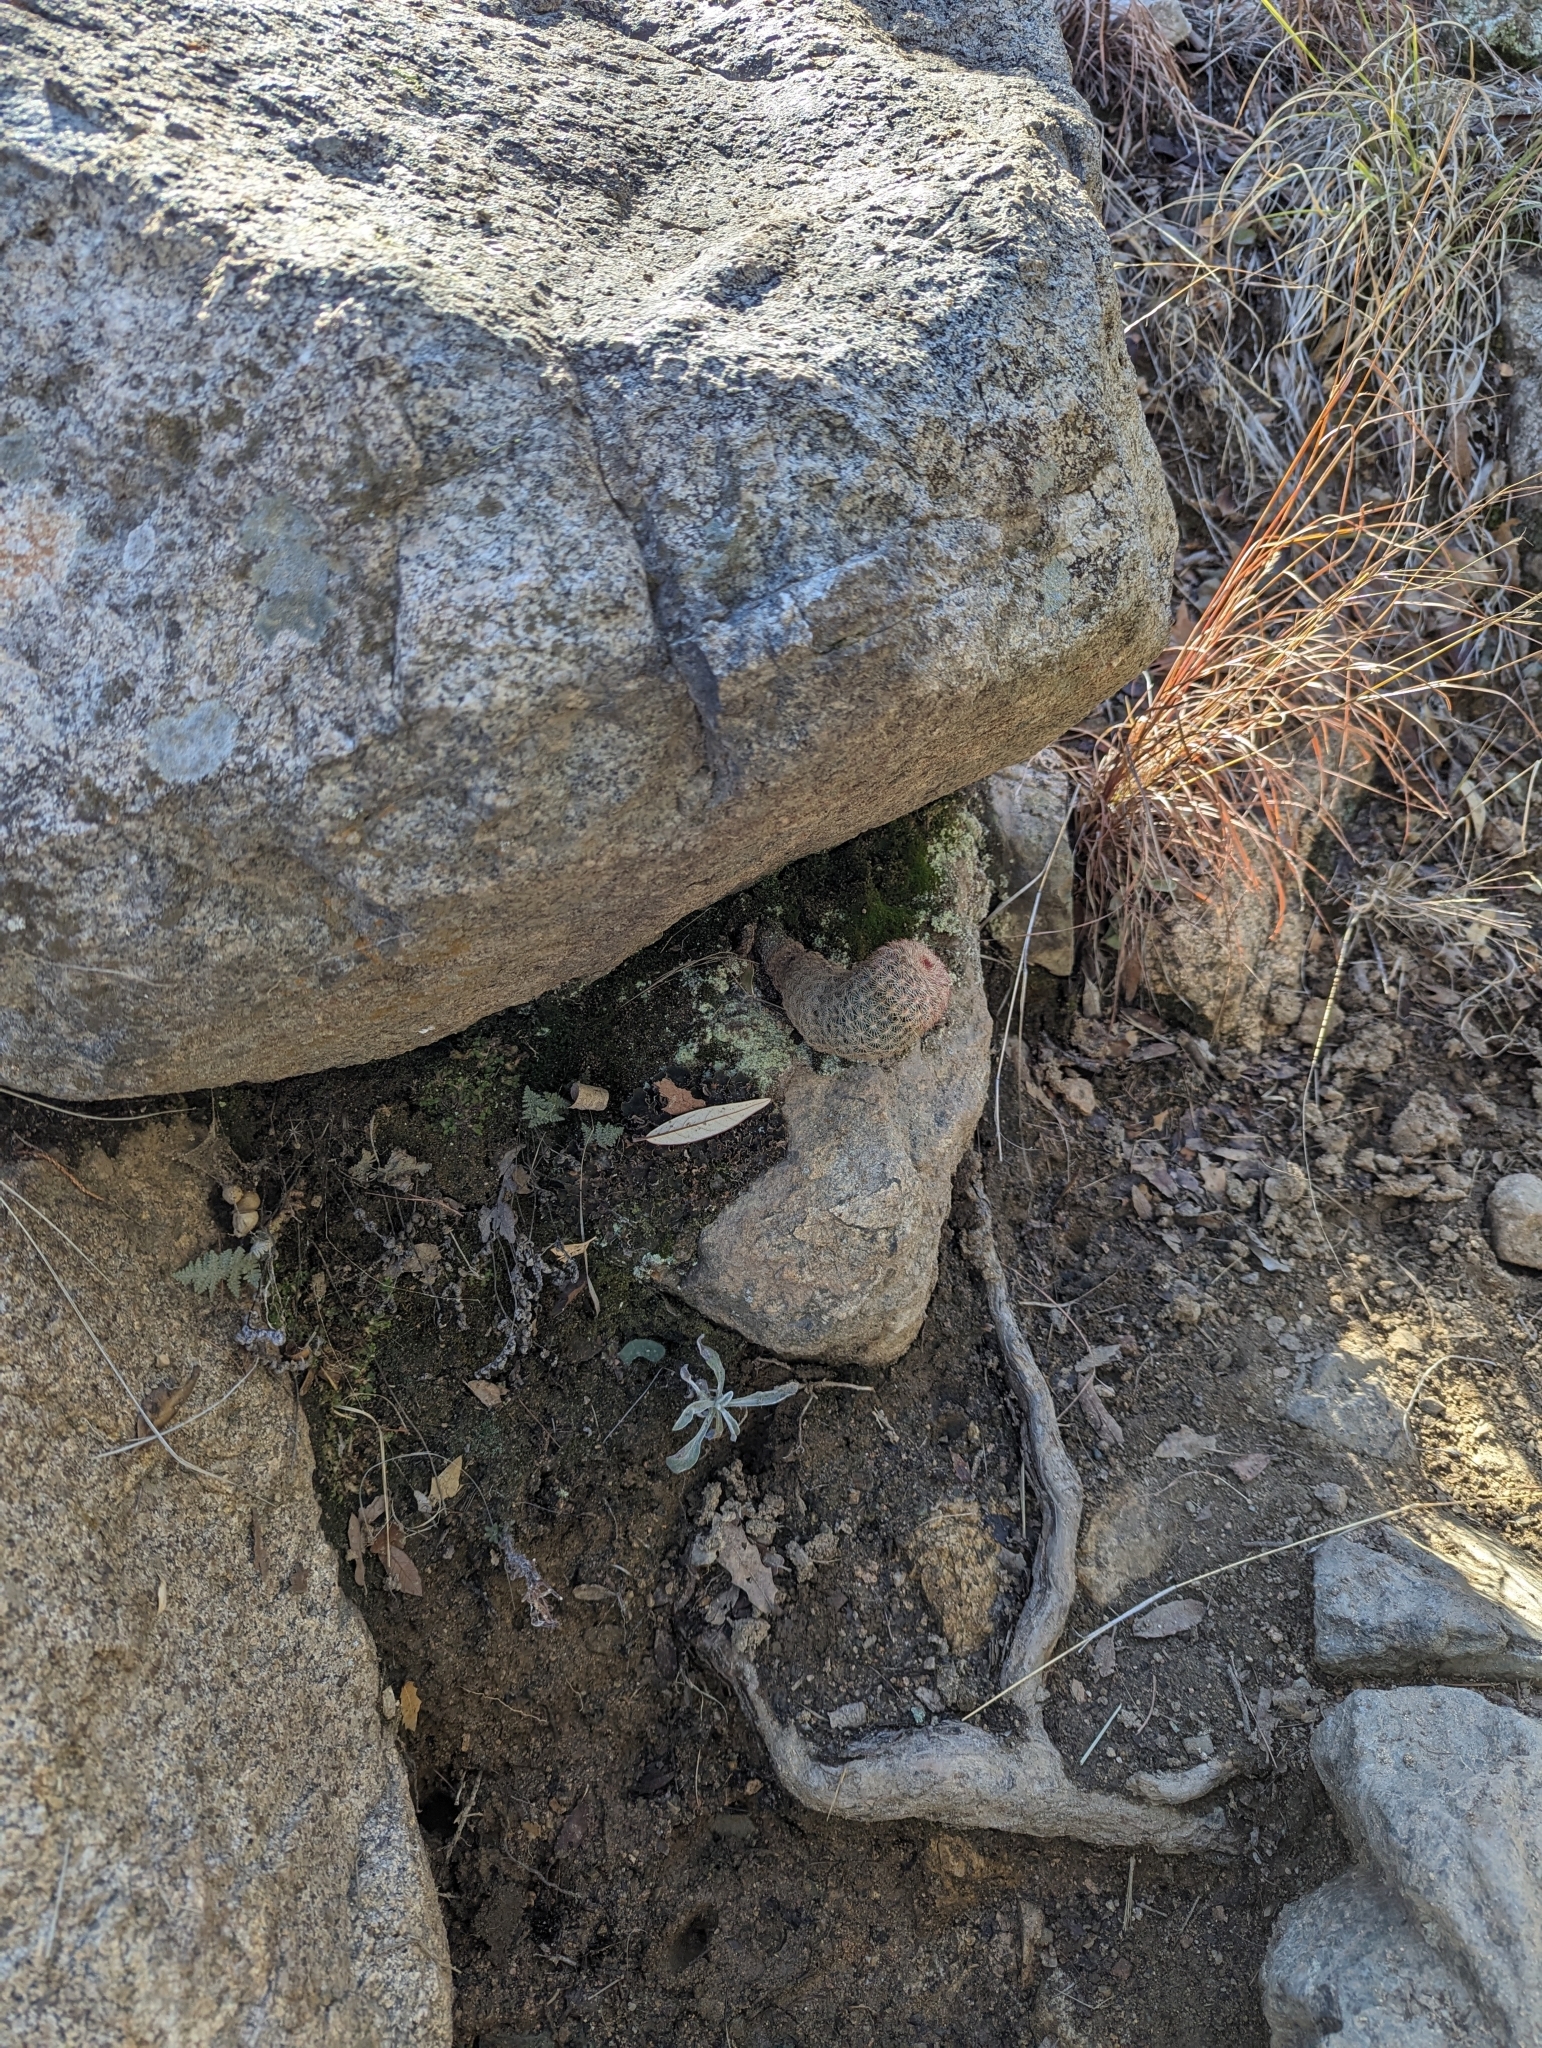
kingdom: Plantae
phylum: Tracheophyta
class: Magnoliopsida
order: Caryophyllales
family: Cactaceae
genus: Echinocereus
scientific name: Echinocereus rigidissimus
